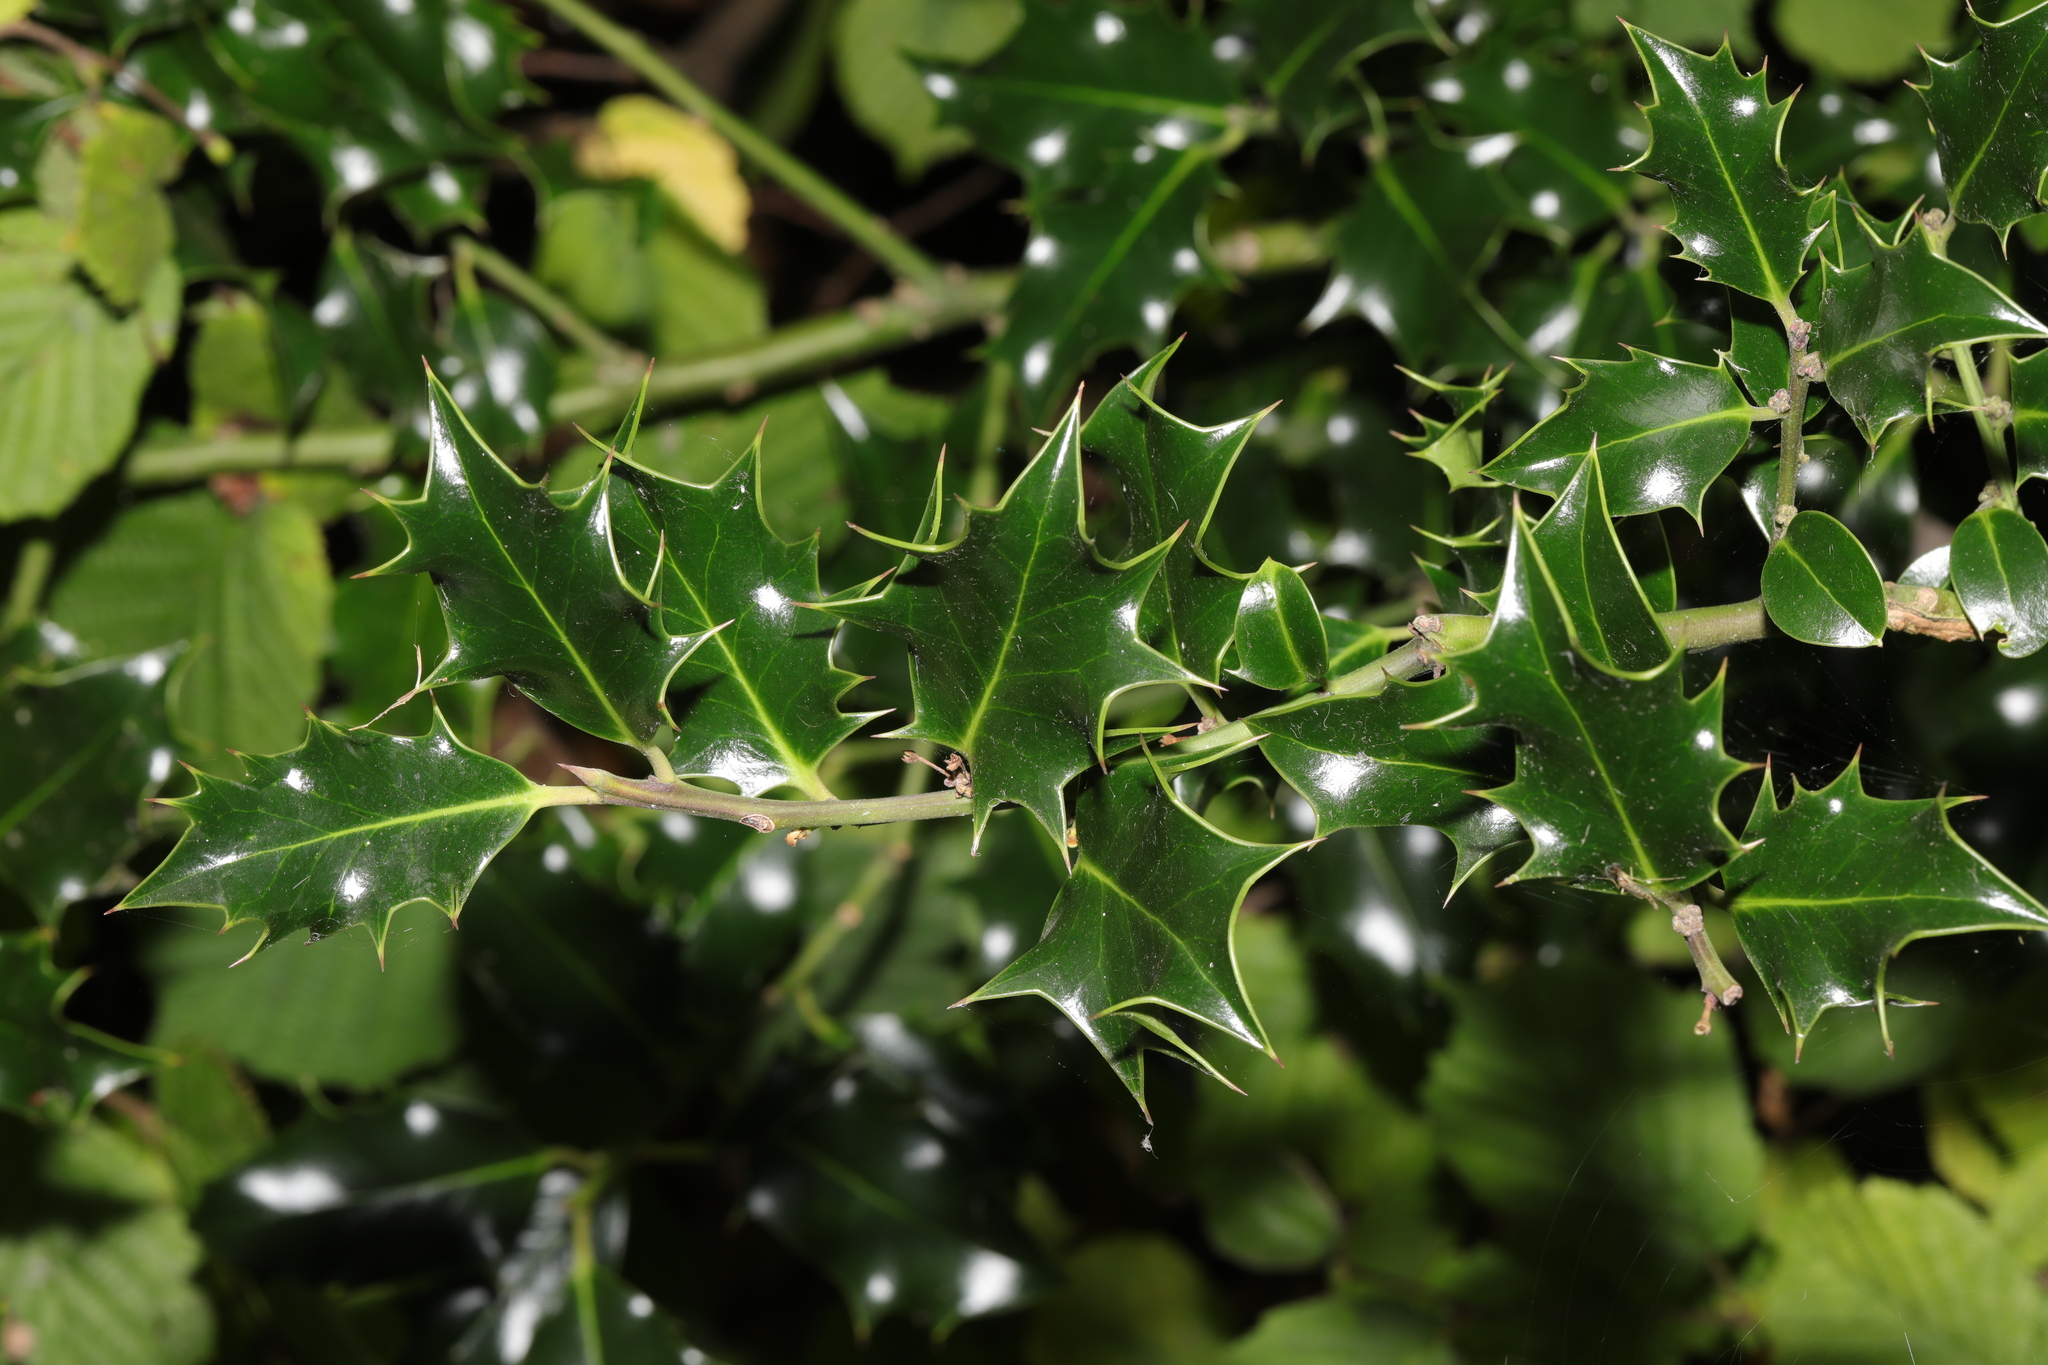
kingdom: Plantae
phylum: Tracheophyta
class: Magnoliopsida
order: Aquifoliales
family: Aquifoliaceae
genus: Ilex
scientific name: Ilex aquifolium
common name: English holly
